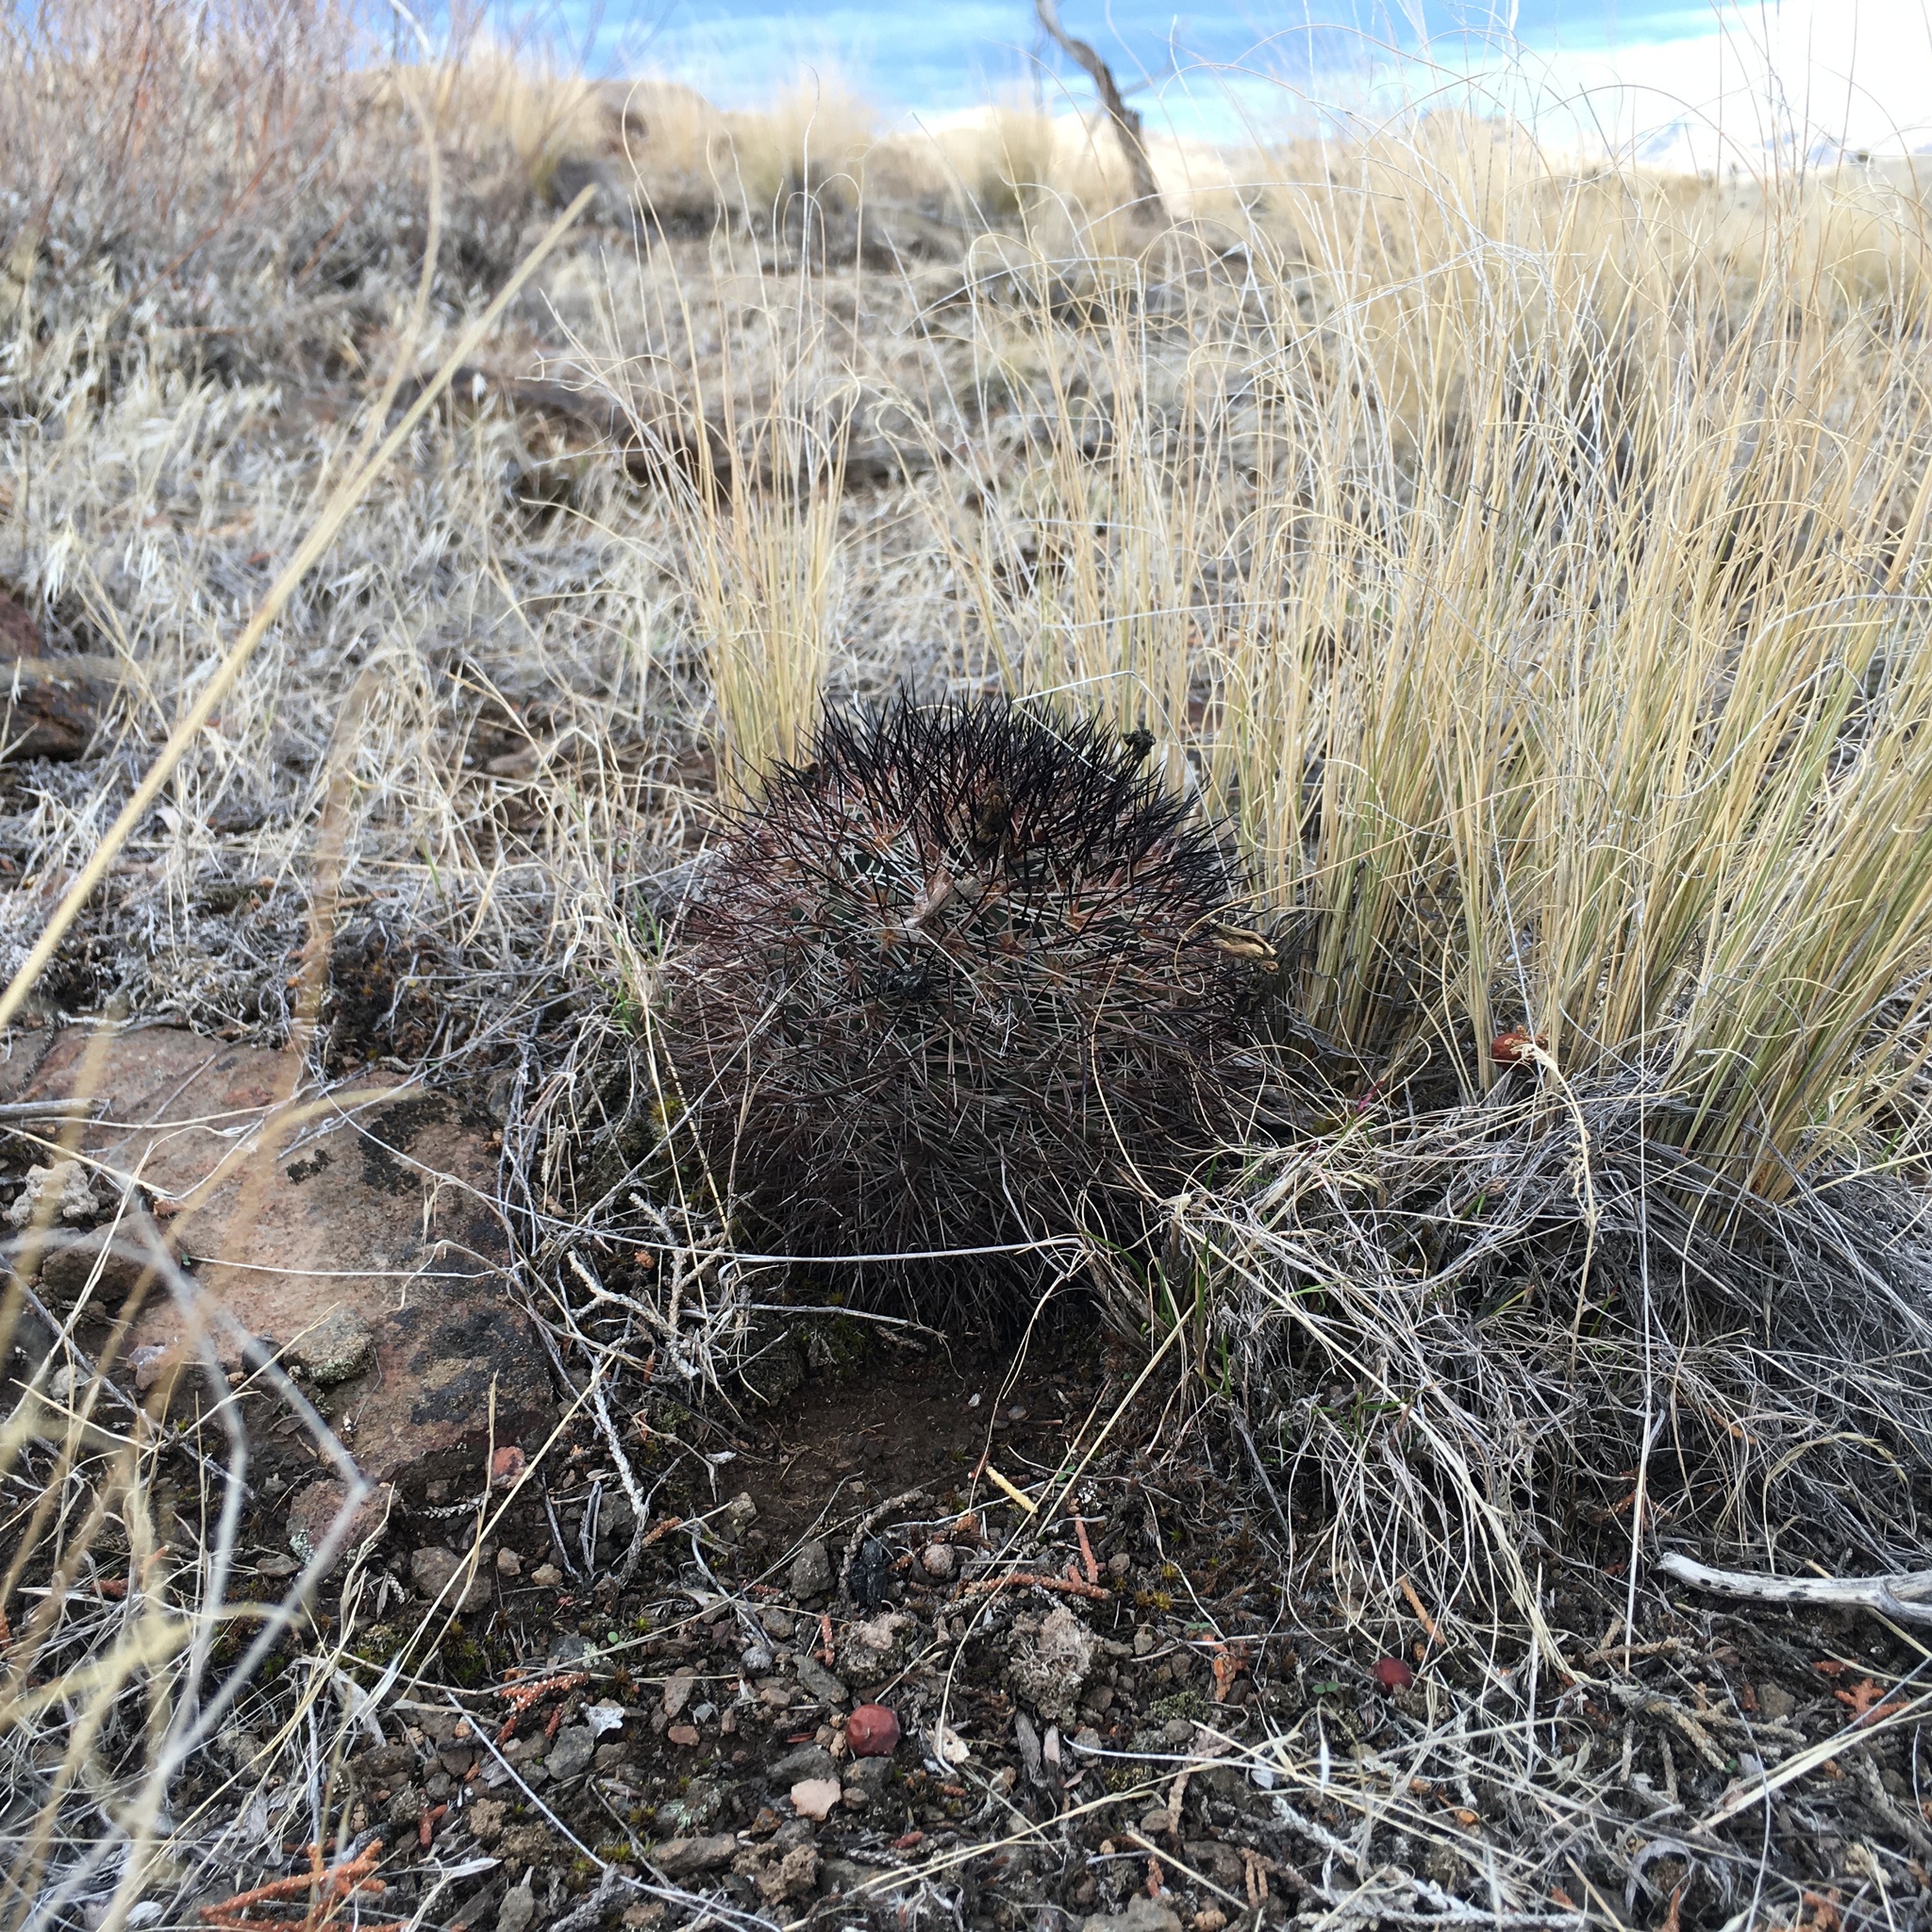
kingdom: Plantae
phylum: Tracheophyta
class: Magnoliopsida
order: Caryophyllales
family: Cactaceae
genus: Pediocactus
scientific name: Pediocactus nigrispinus
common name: Simpson's hedgehog cactus
